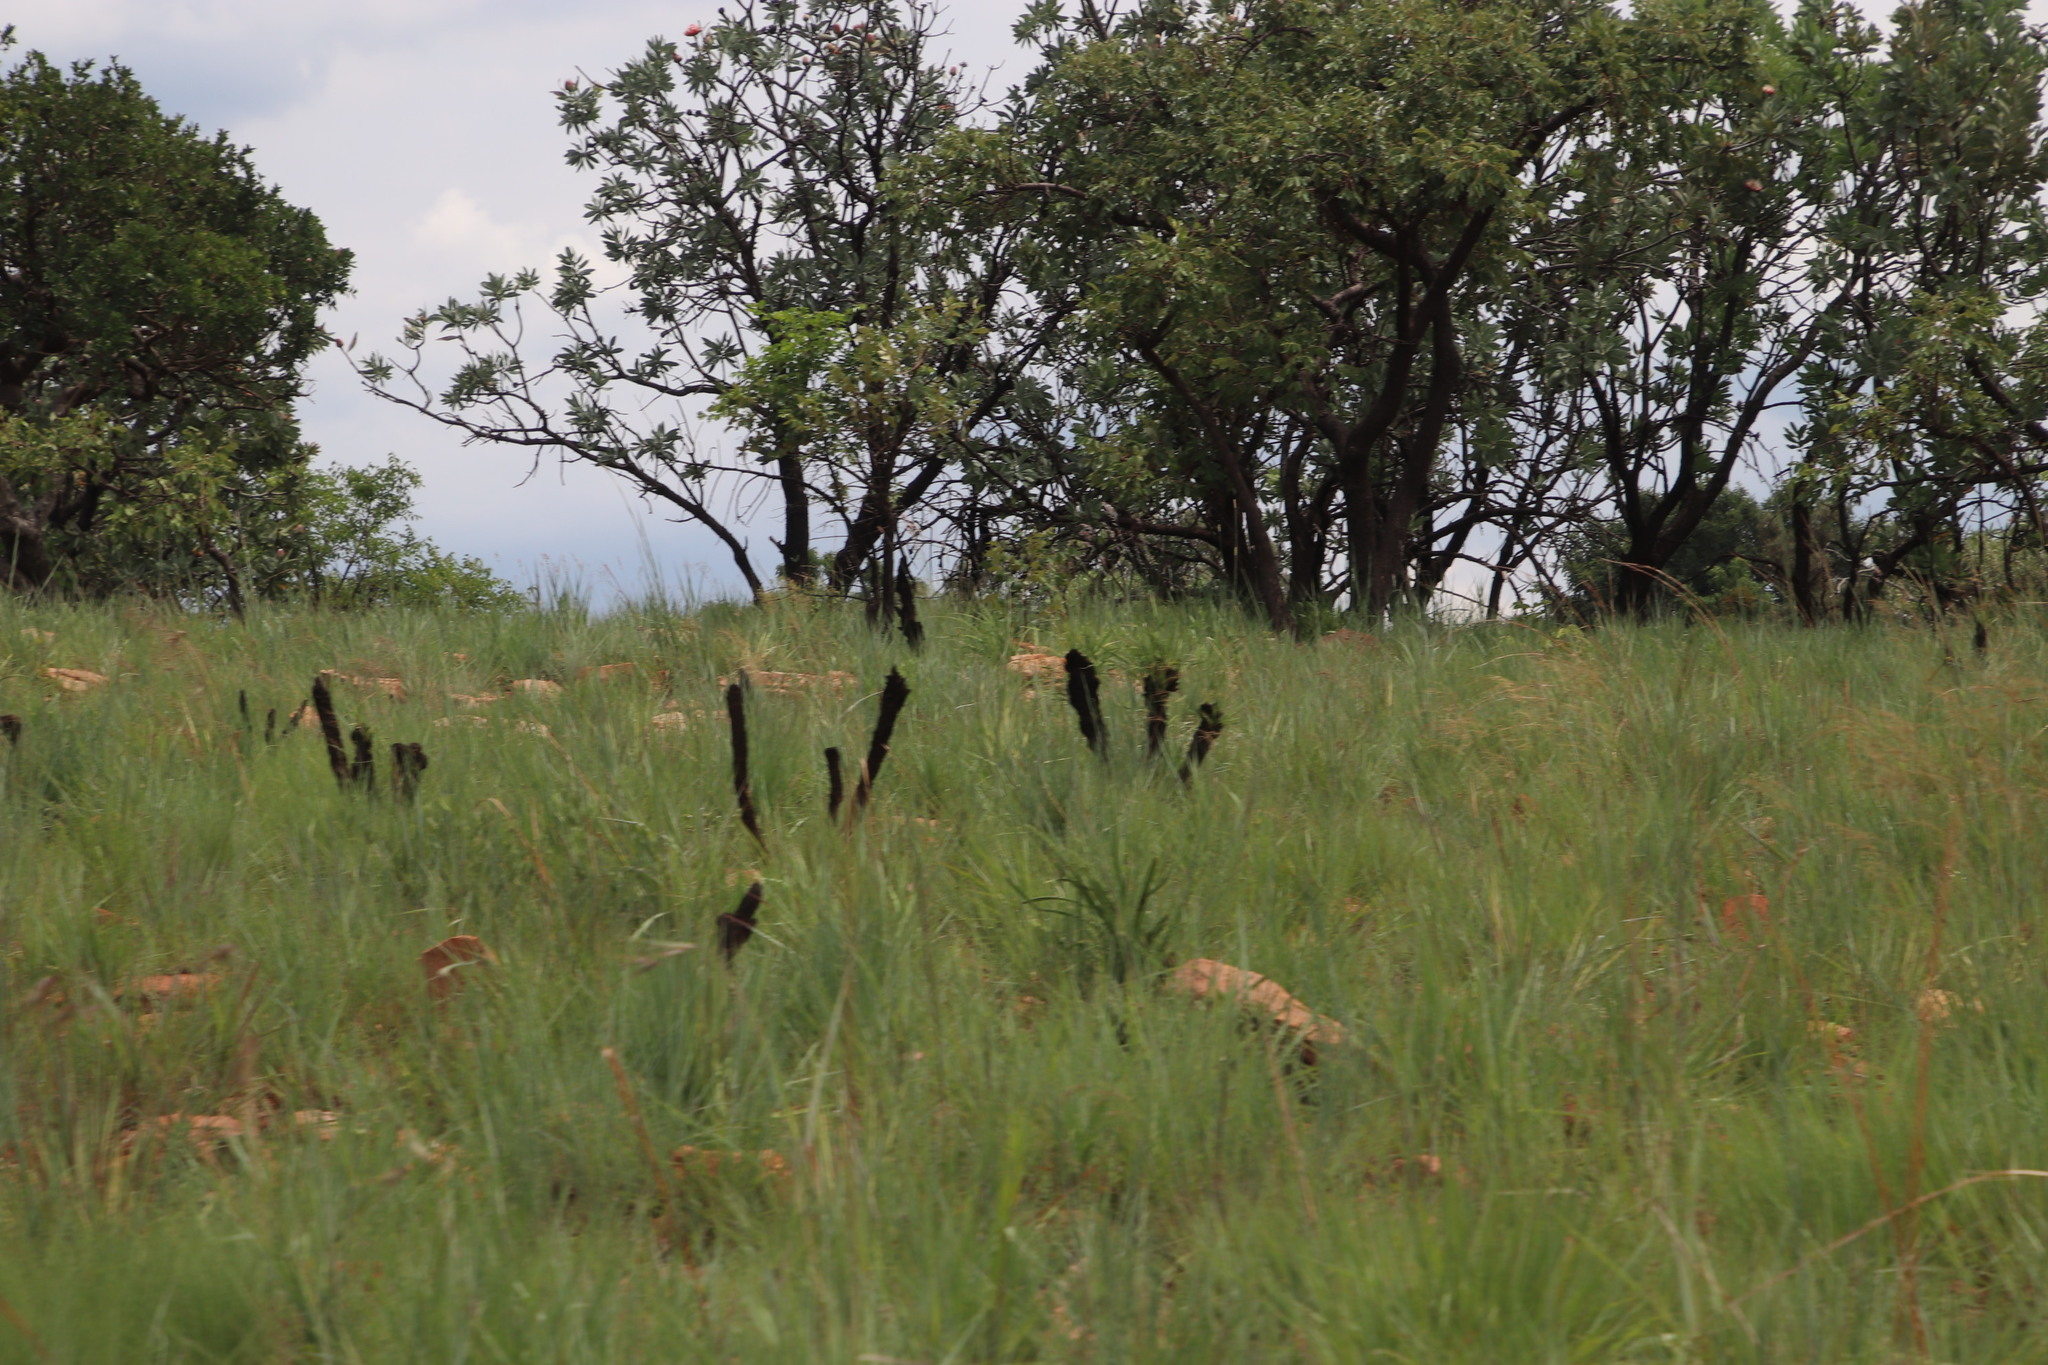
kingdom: Plantae
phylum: Tracheophyta
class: Liliopsida
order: Pandanales
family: Velloziaceae
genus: Xerophyta
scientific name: Xerophyta retinervis
